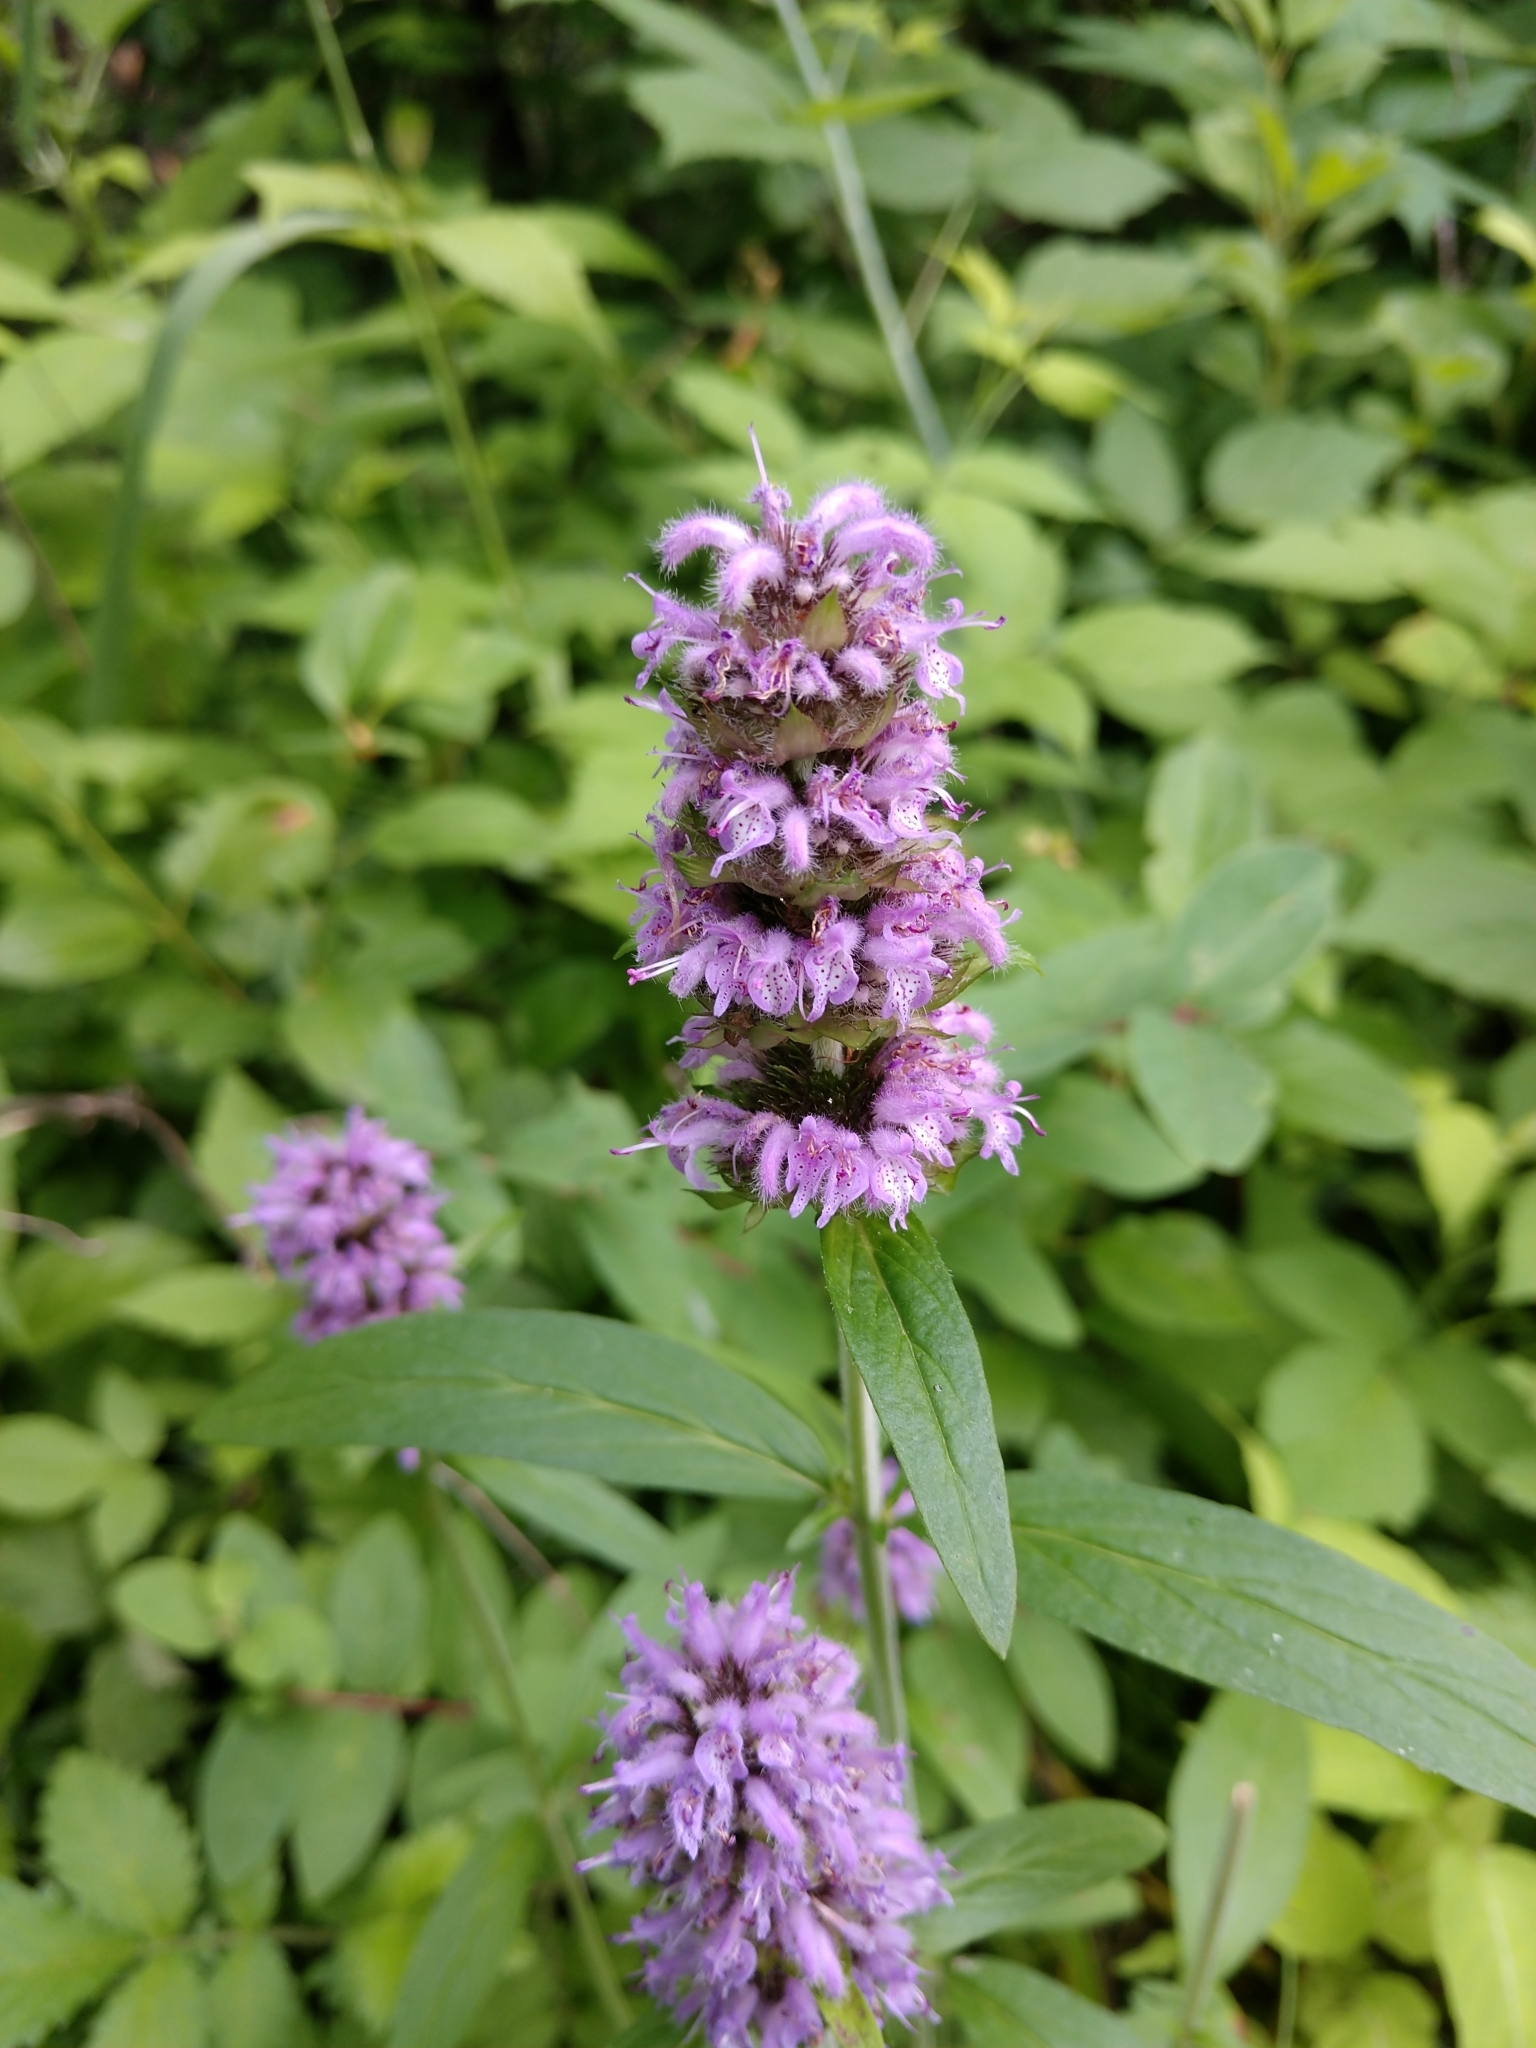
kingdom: Plantae
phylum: Tracheophyta
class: Magnoliopsida
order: Lamiales
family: Lamiaceae
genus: Blephilia
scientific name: Blephilia ciliata
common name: Downy blephilia
